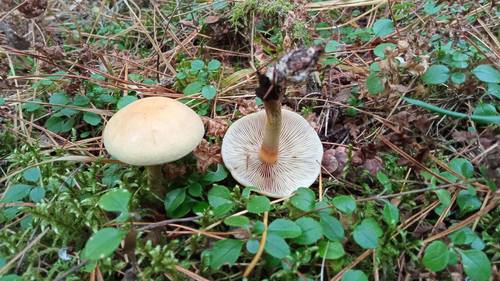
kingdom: Fungi
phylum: Basidiomycota
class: Agaricomycetes
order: Agaricales
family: Strophariaceae
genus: Hypholoma
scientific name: Hypholoma capnoides
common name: Conifer tuft
